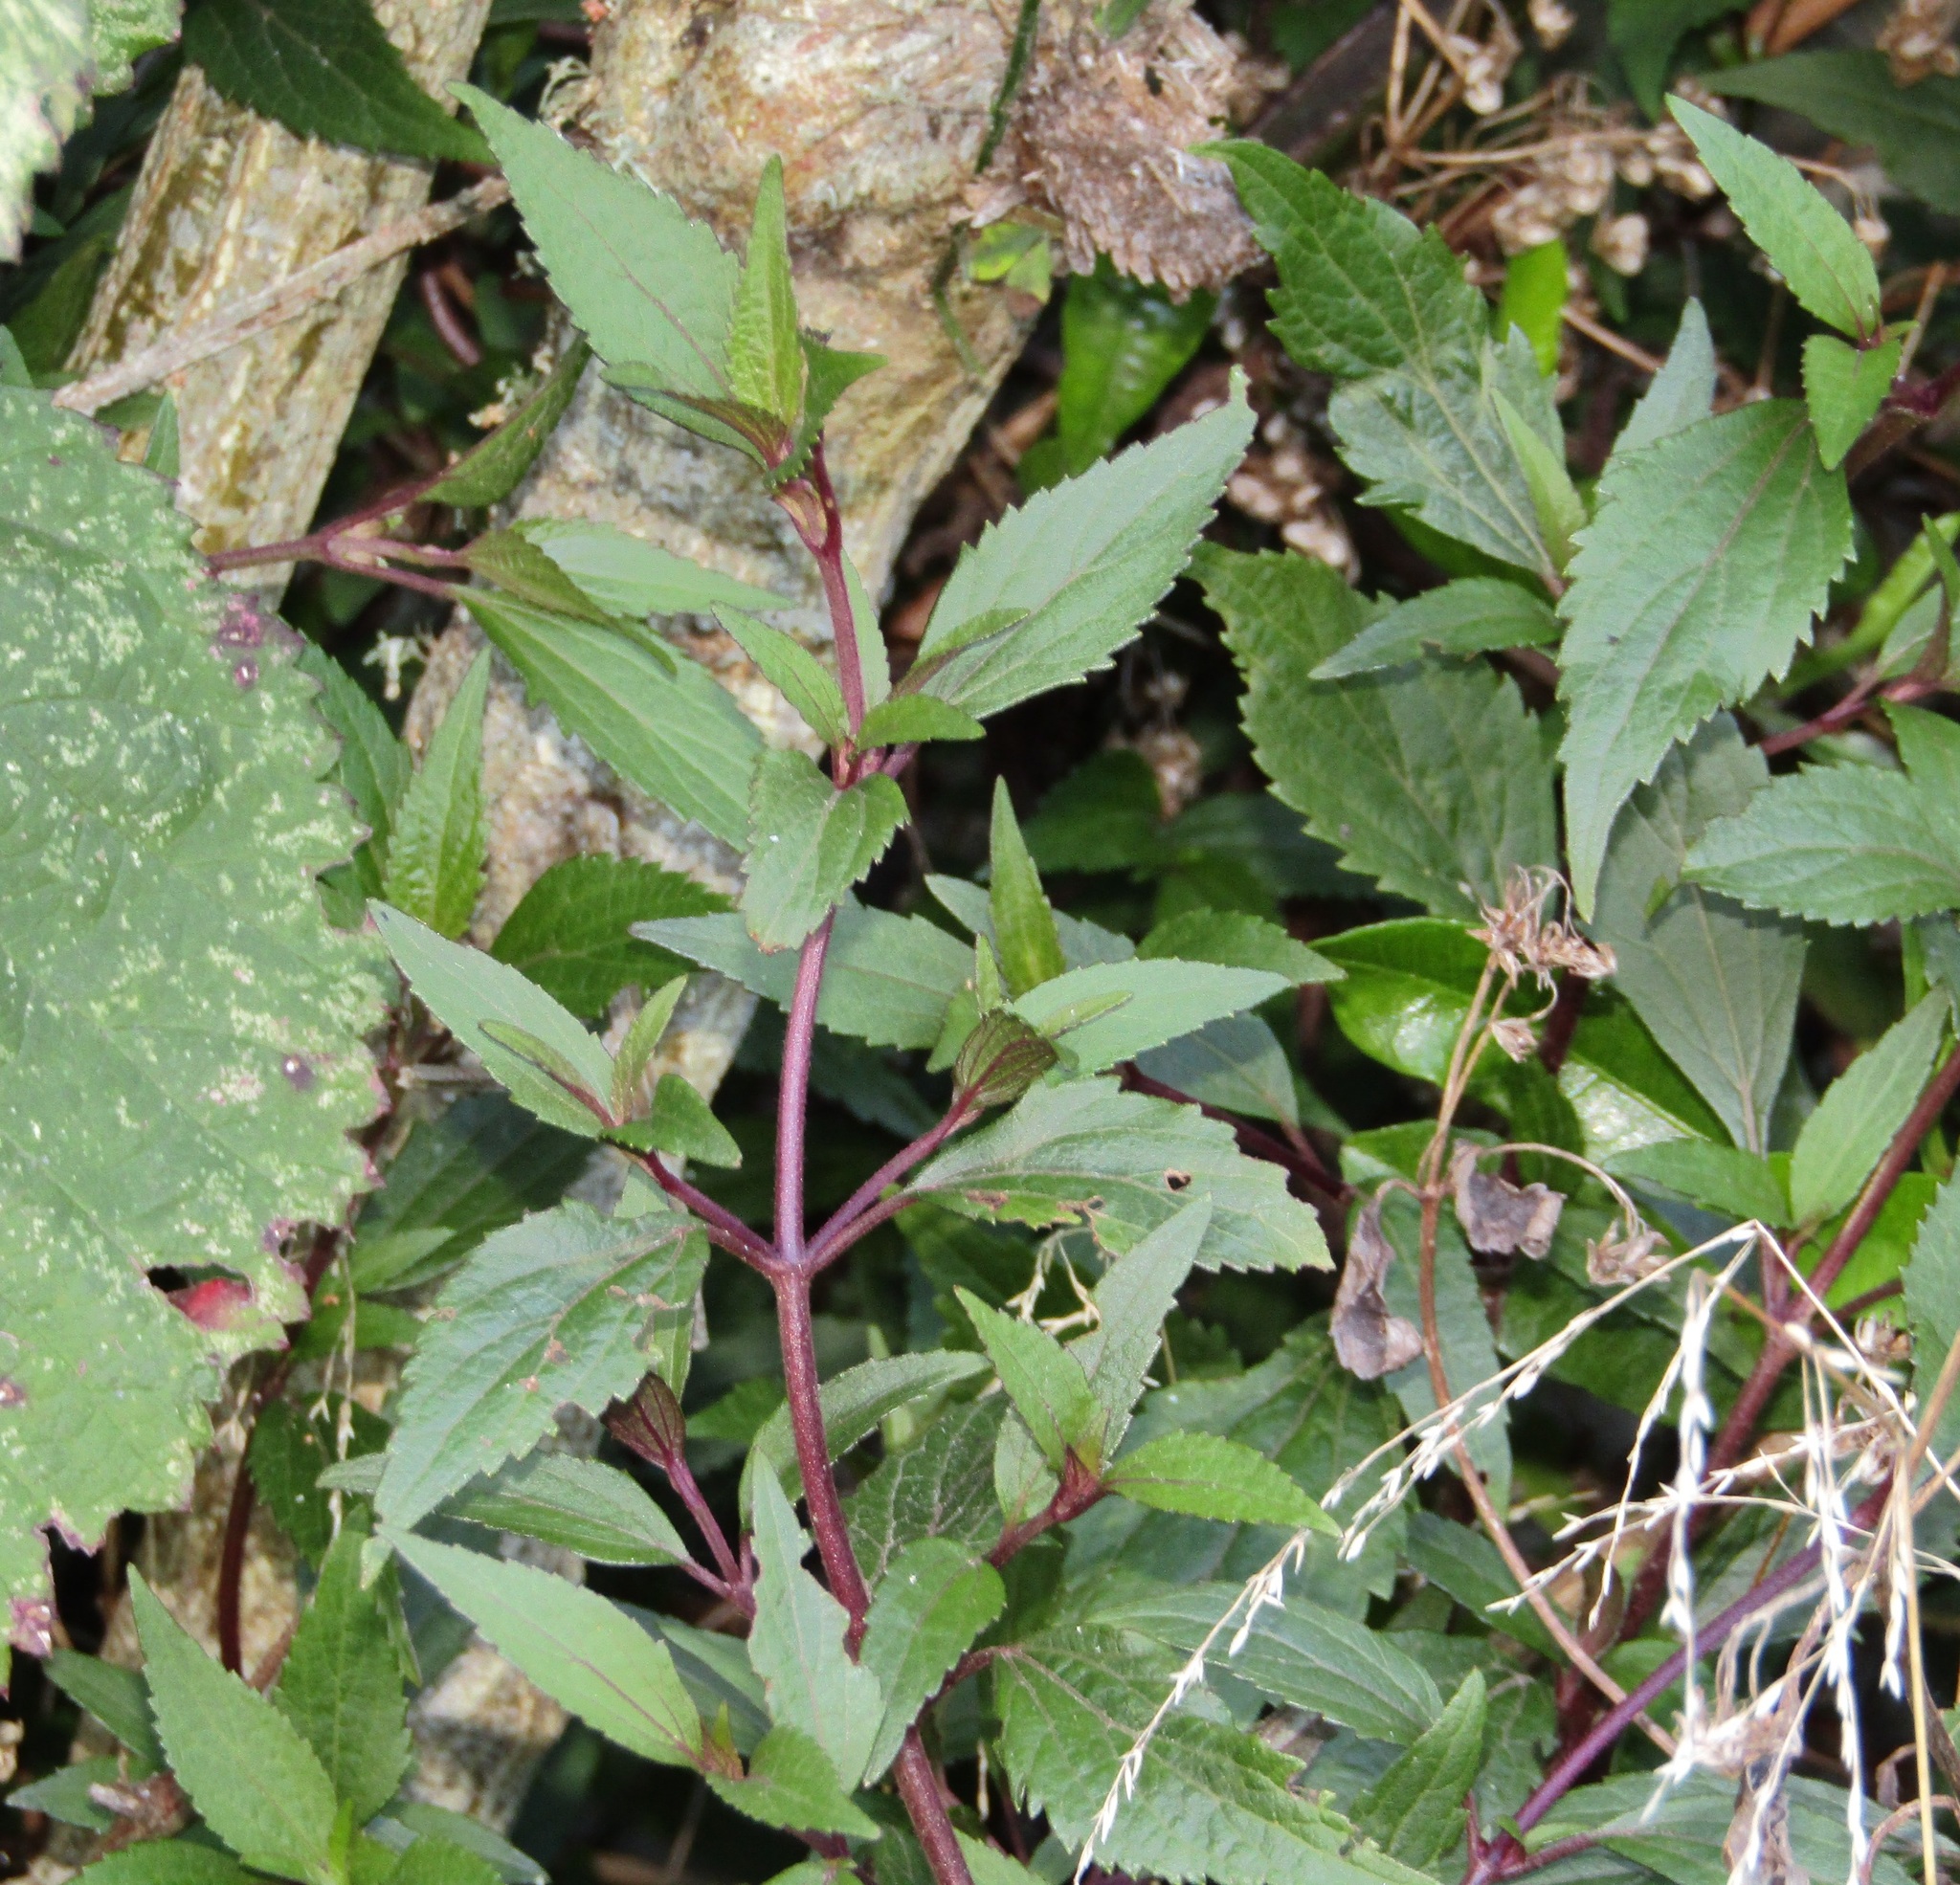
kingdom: Plantae
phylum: Tracheophyta
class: Magnoliopsida
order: Asterales
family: Asteraceae
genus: Ageratina
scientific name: Ageratina riparia
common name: Creeping croftonweed
